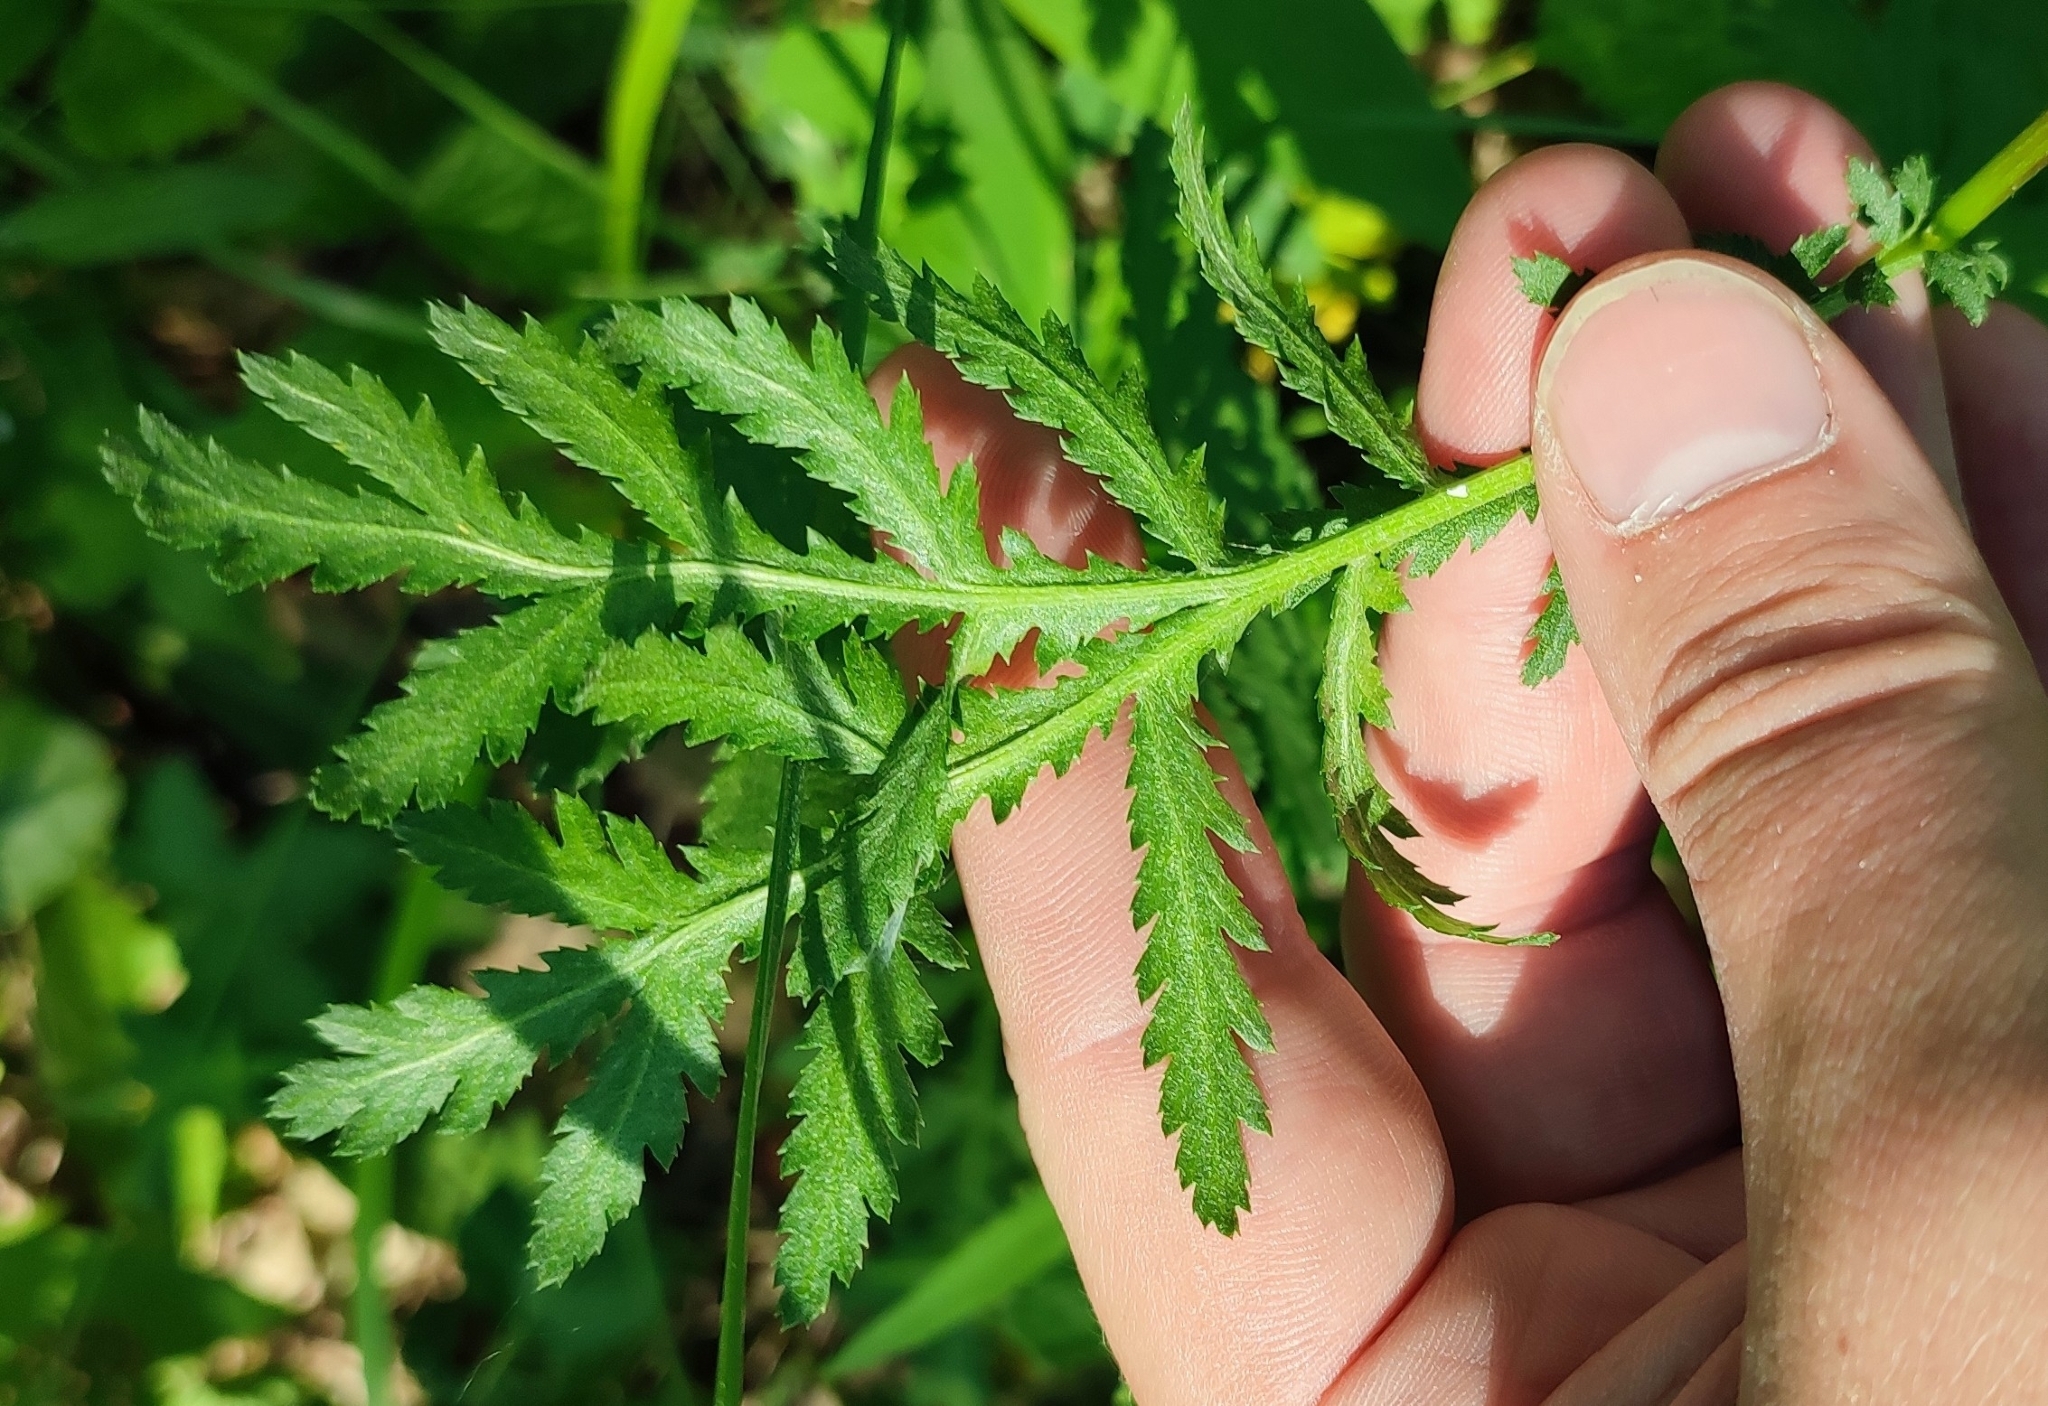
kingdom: Plantae
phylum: Tracheophyta
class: Magnoliopsida
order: Asterales
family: Asteraceae
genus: Tanacetum
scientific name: Tanacetum vulgare
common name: Common tansy
